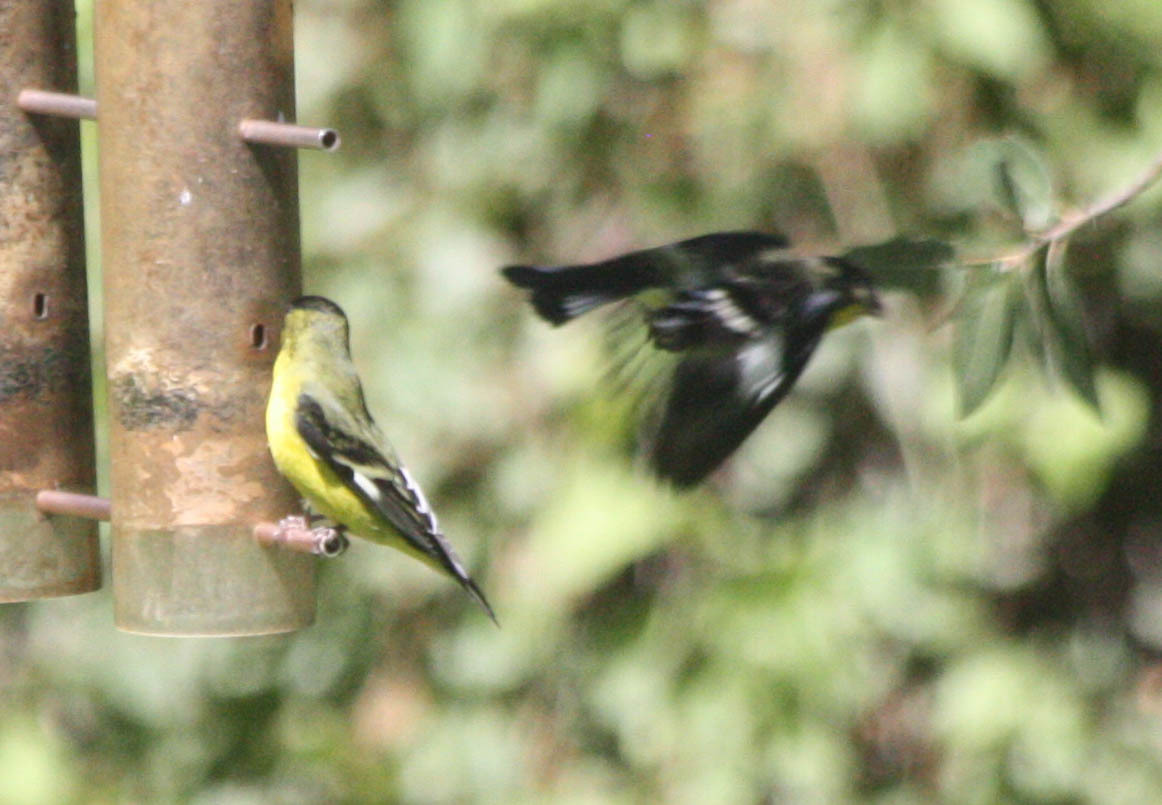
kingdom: Animalia
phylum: Chordata
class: Aves
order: Passeriformes
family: Fringillidae
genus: Spinus
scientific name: Spinus psaltria
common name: Lesser goldfinch
